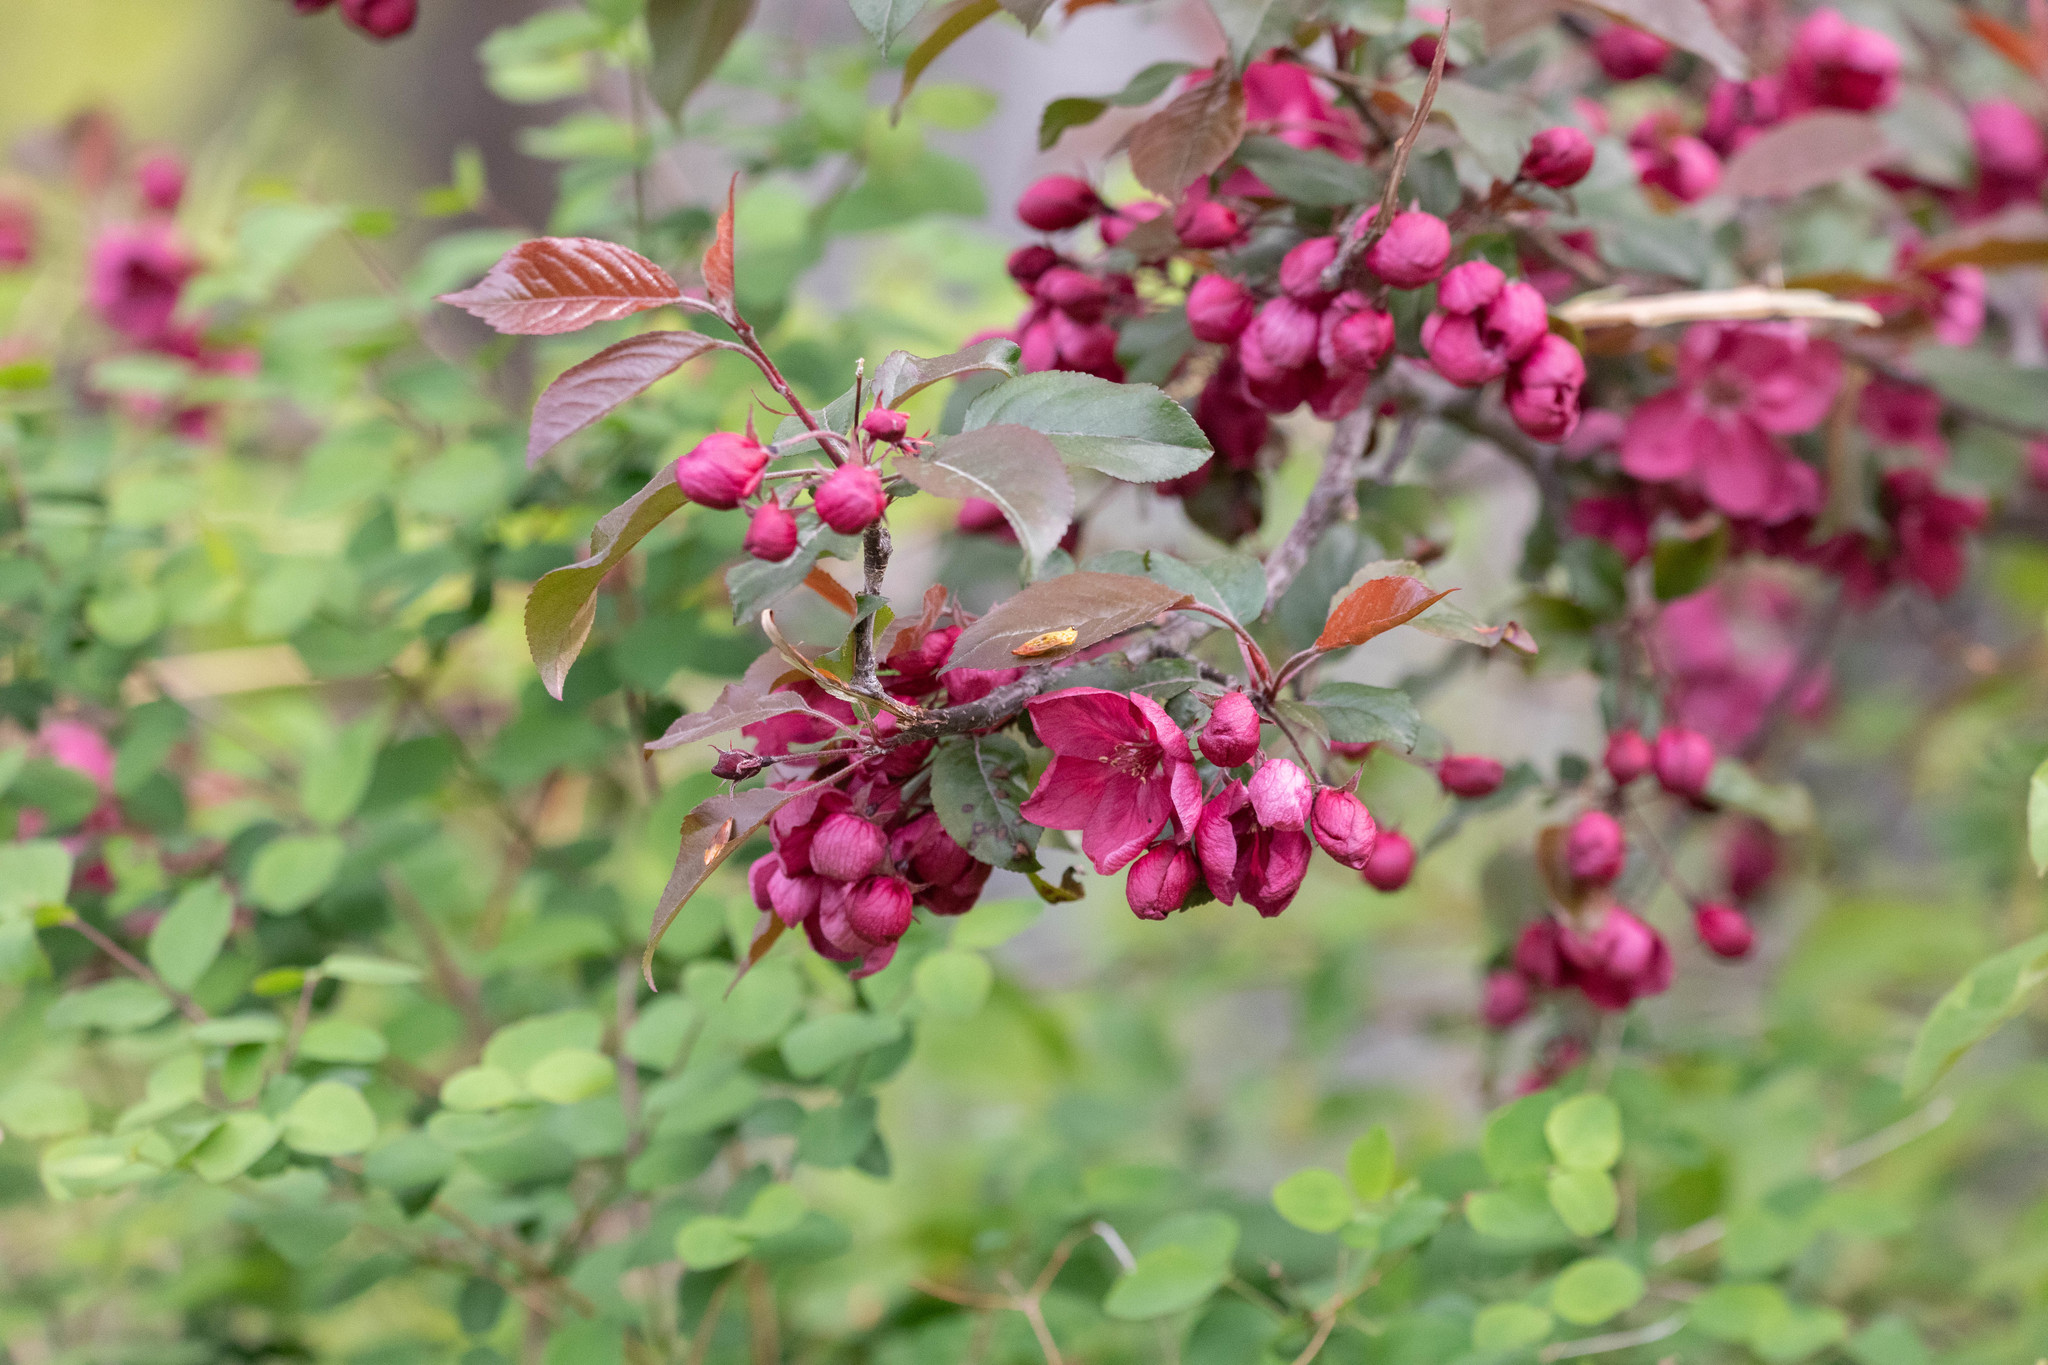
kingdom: Plantae
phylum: Tracheophyta
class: Magnoliopsida
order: Rosales
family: Rosaceae
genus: Malus
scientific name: Malus baccata
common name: Siberian crab
